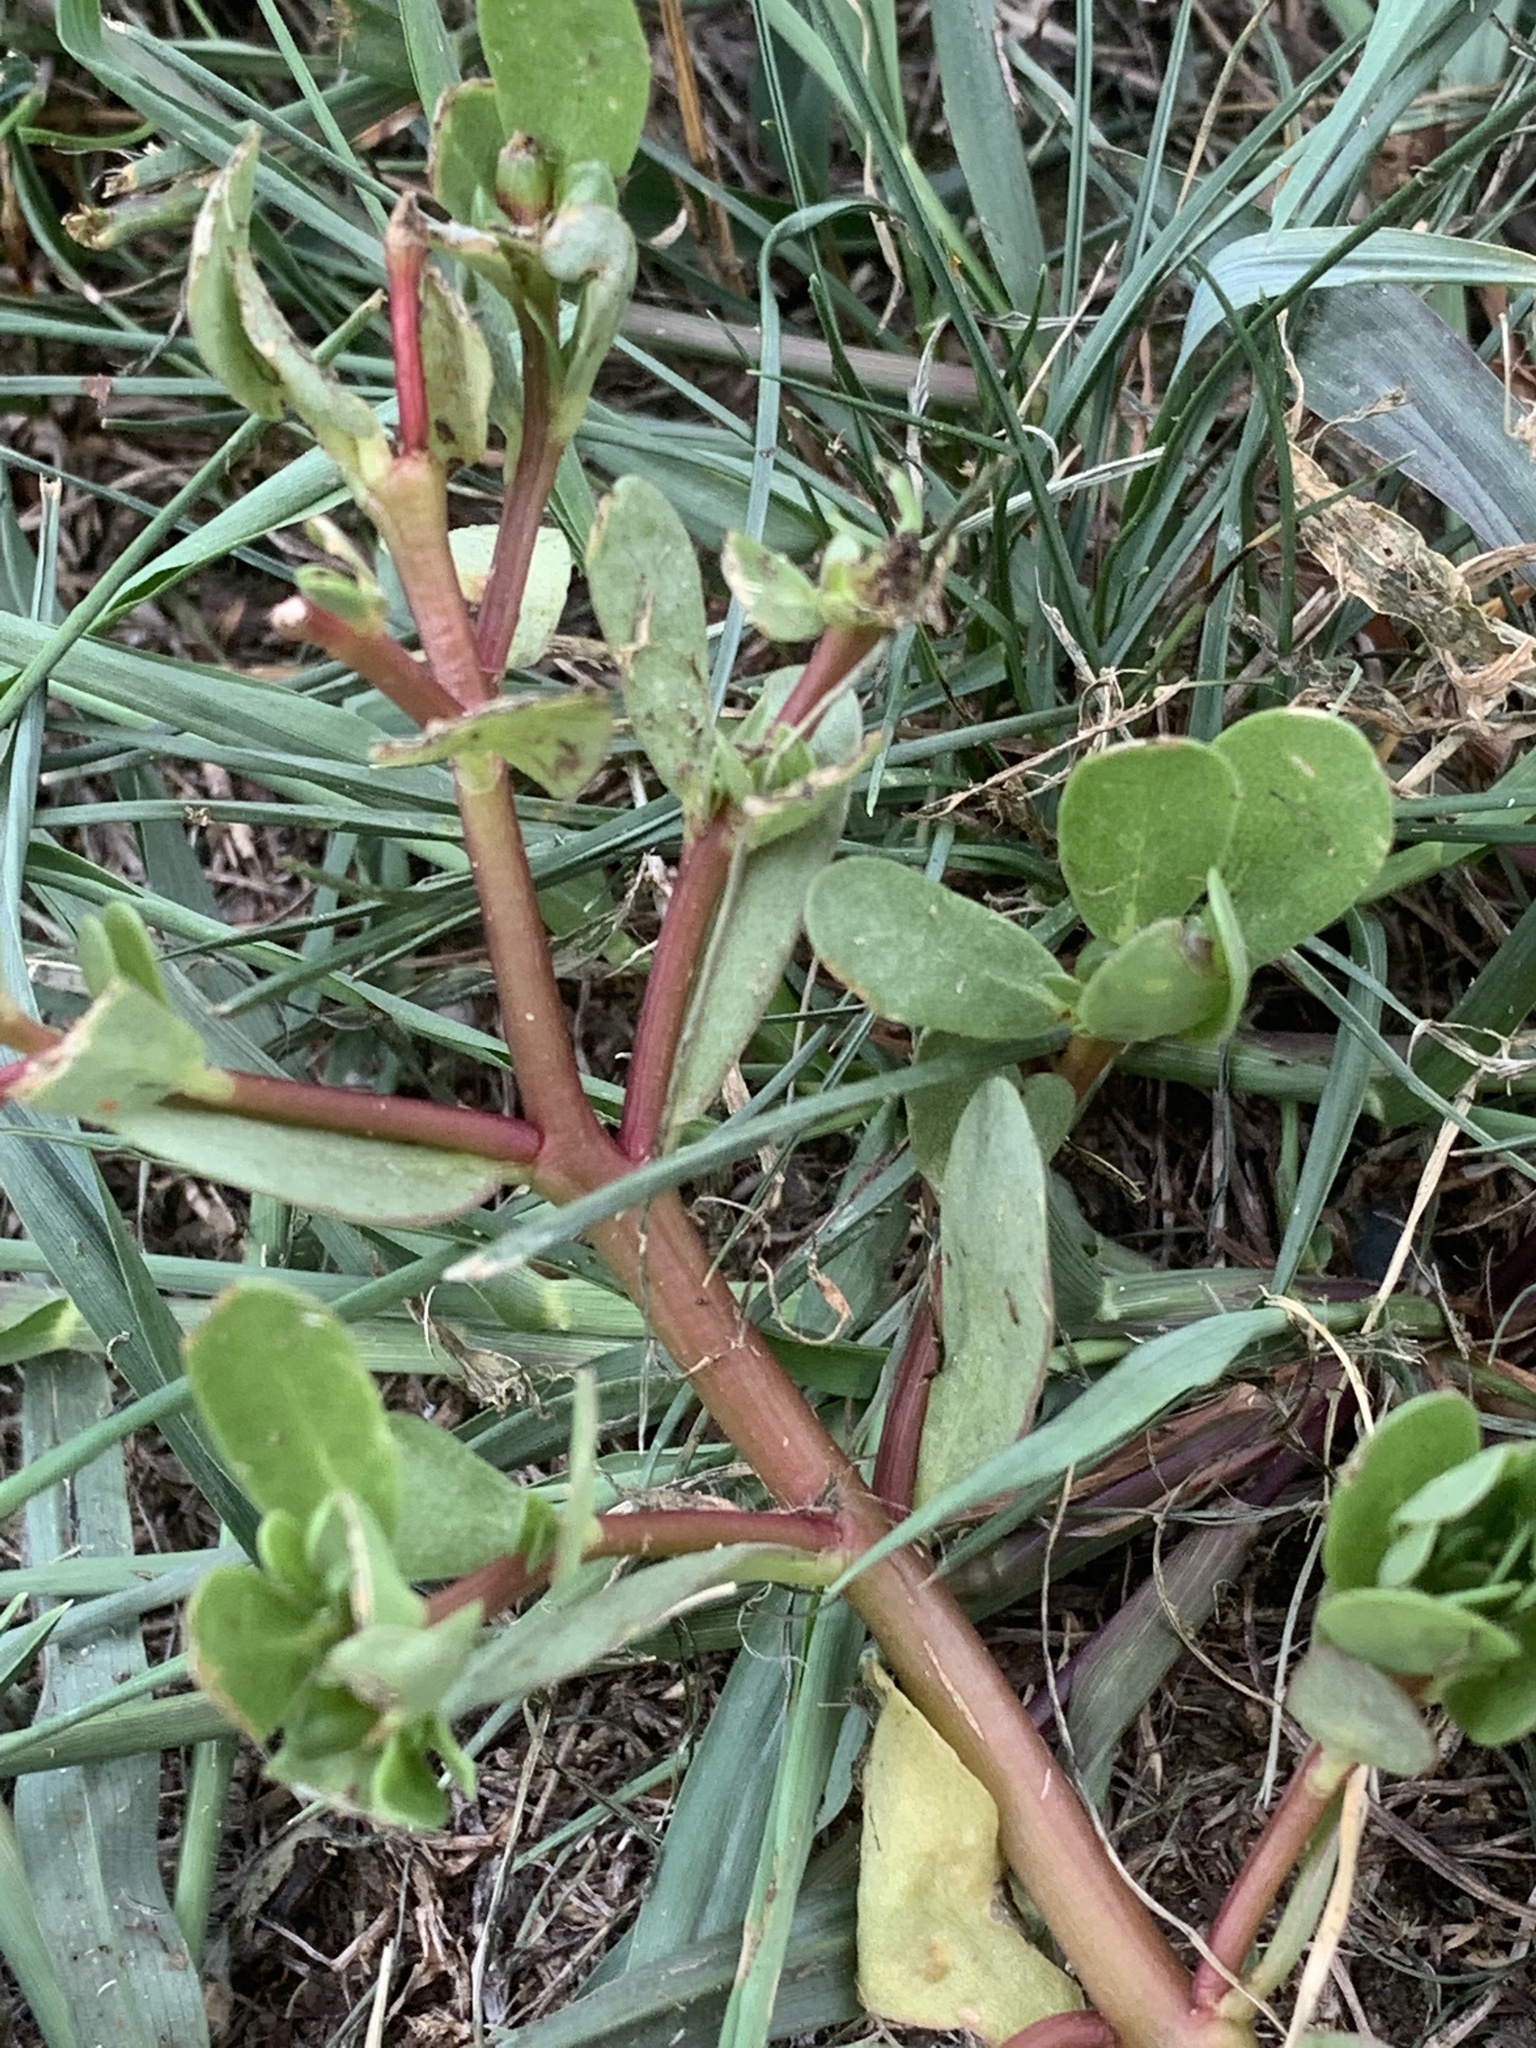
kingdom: Plantae
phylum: Tracheophyta
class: Magnoliopsida
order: Caryophyllales
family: Portulacaceae
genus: Portulaca
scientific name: Portulaca oleracea
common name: Common purslane
